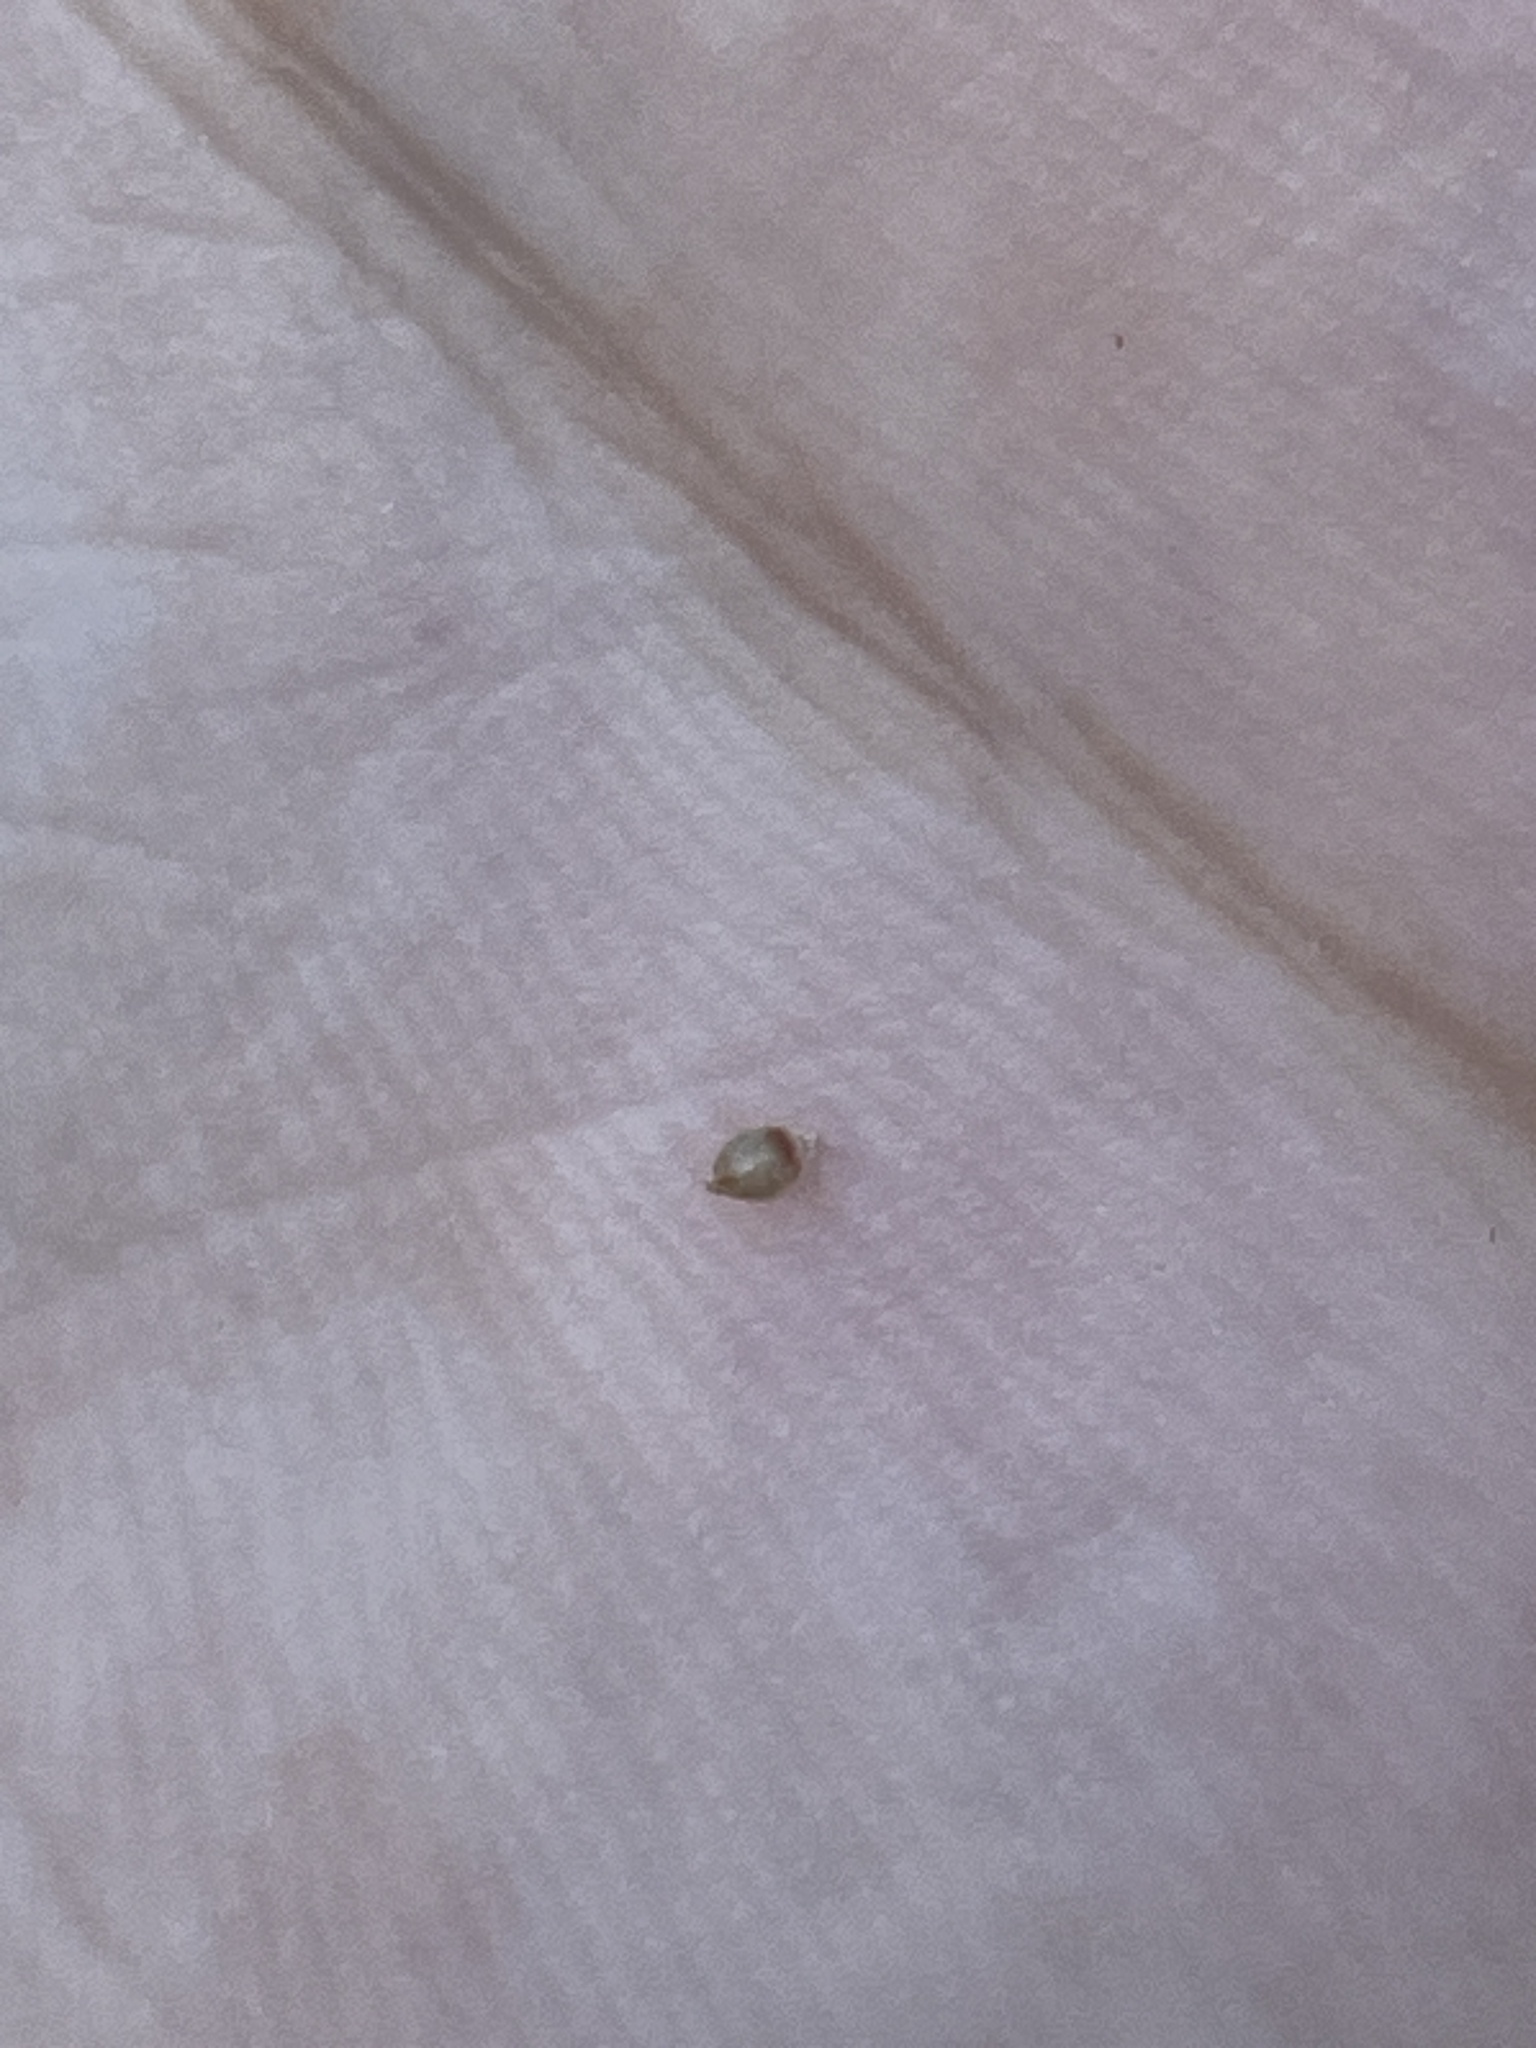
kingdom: Plantae
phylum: Tracheophyta
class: Liliopsida
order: Poales
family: Cyperaceae
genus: Rhynchospora
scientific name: Rhynchospora chapmanii
